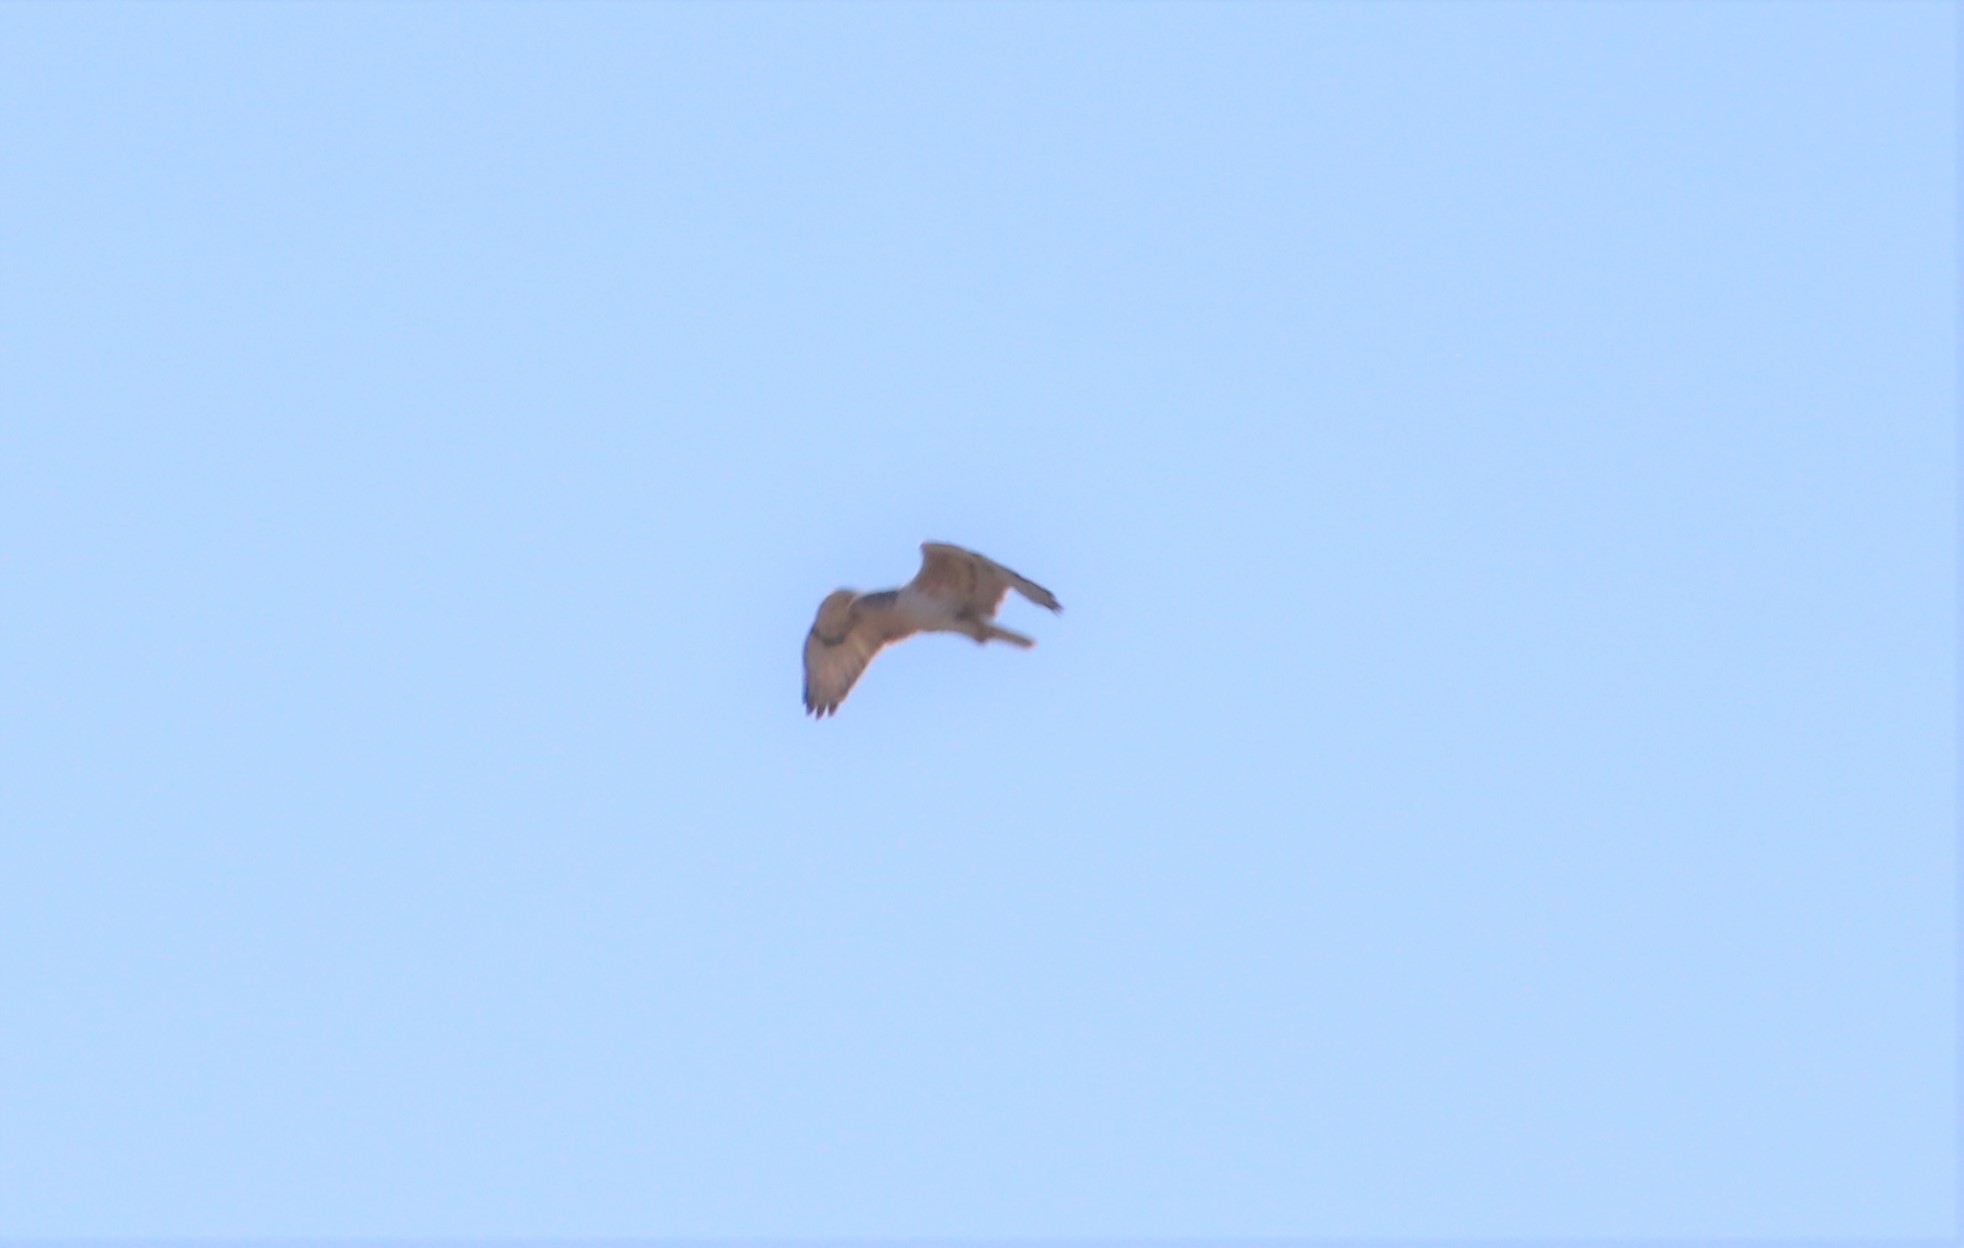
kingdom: Animalia
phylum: Chordata
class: Aves
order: Accipitriformes
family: Accipitridae
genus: Buteo
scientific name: Buteo regalis
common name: Ferruginous hawk
